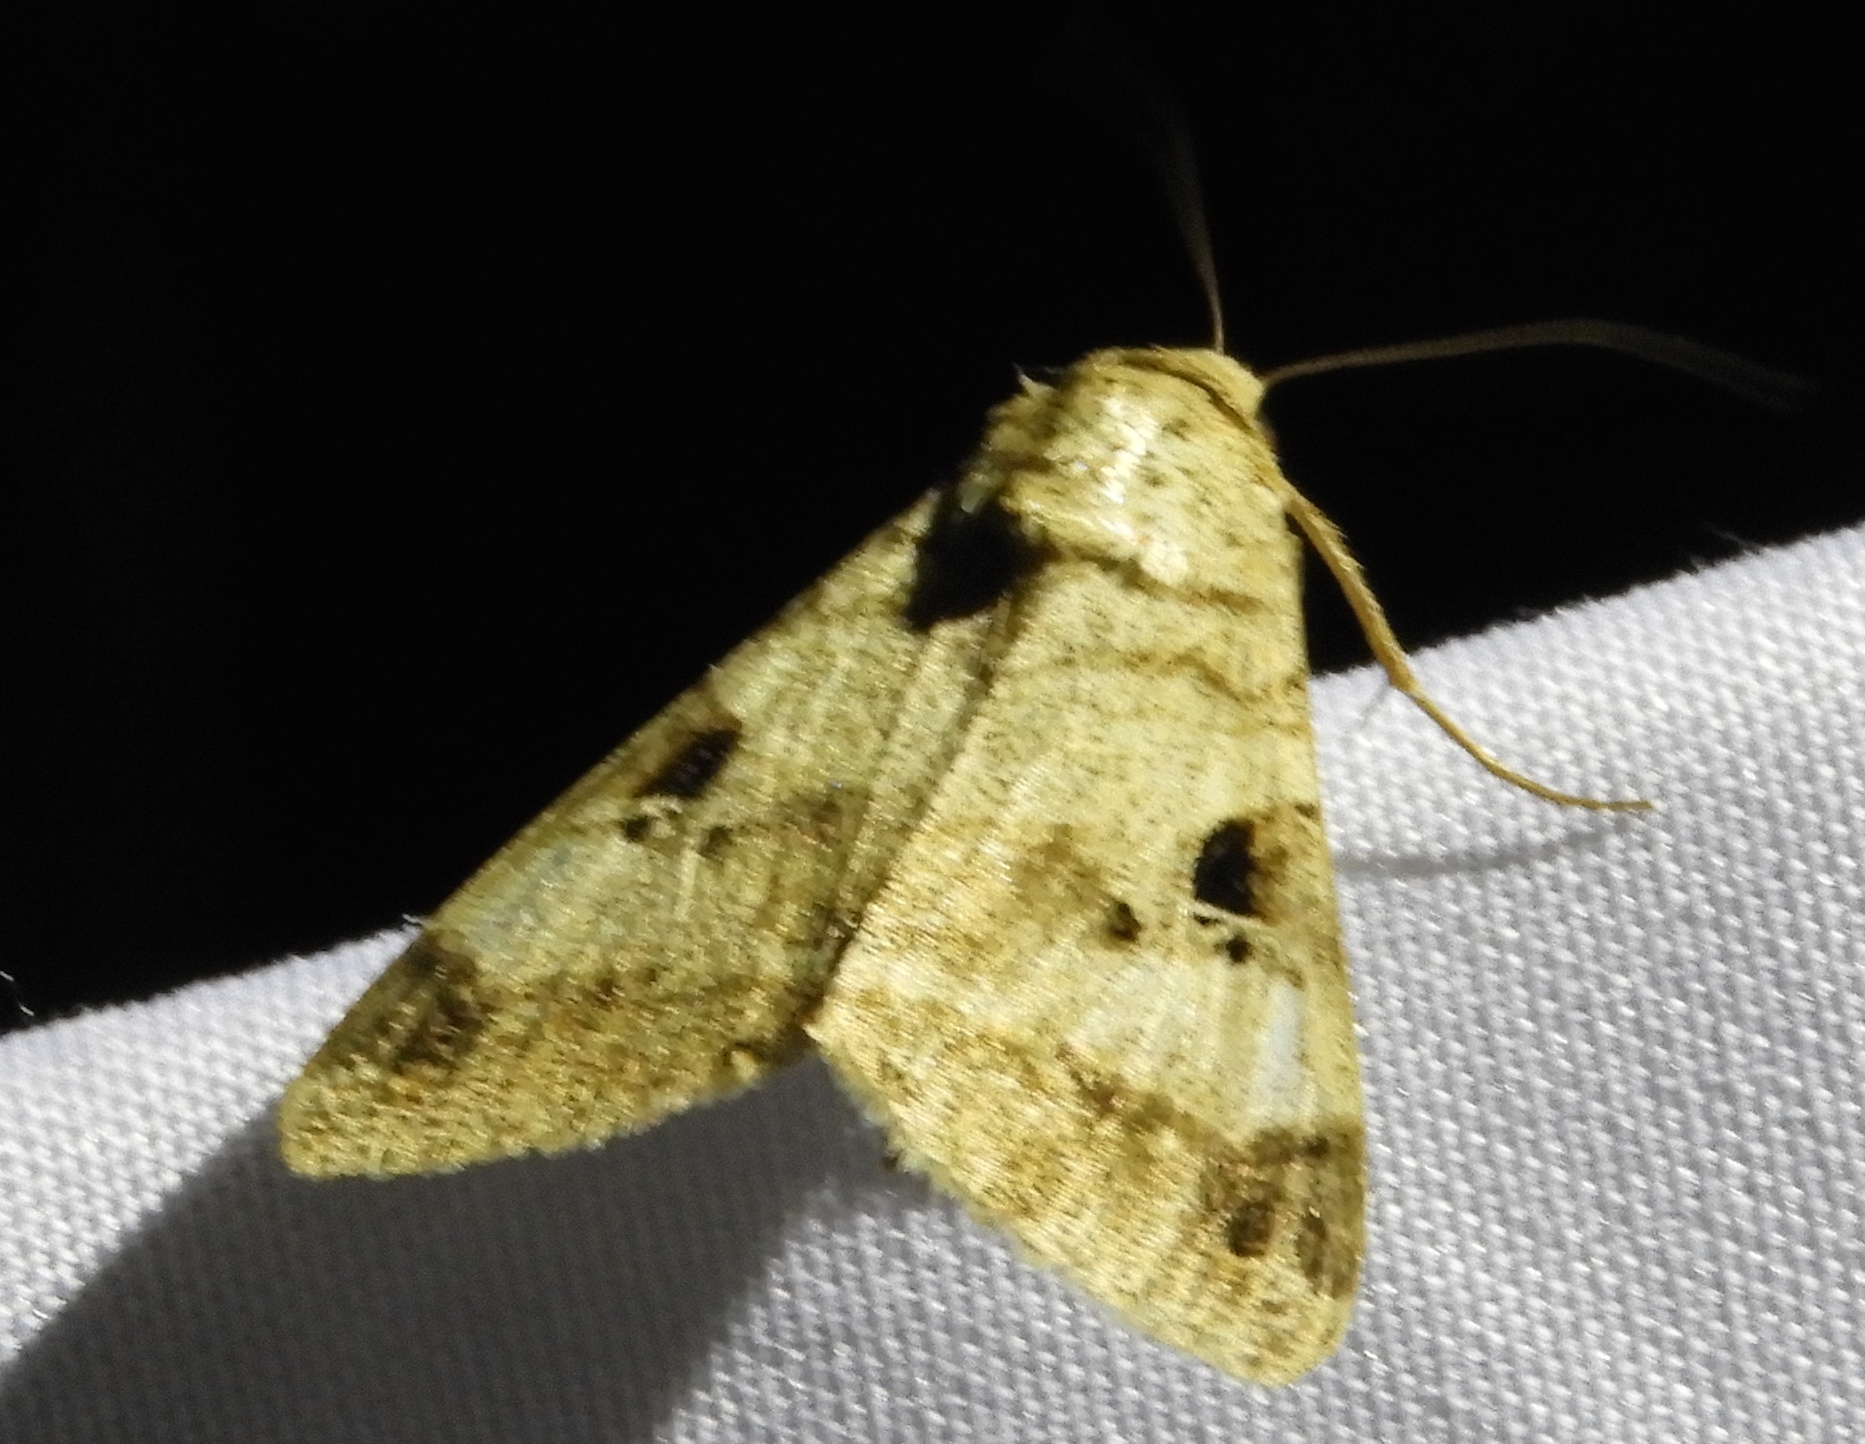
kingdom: Animalia
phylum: Arthropoda
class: Insecta
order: Lepidoptera
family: Erebidae
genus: Melipotis
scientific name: Melipotis
